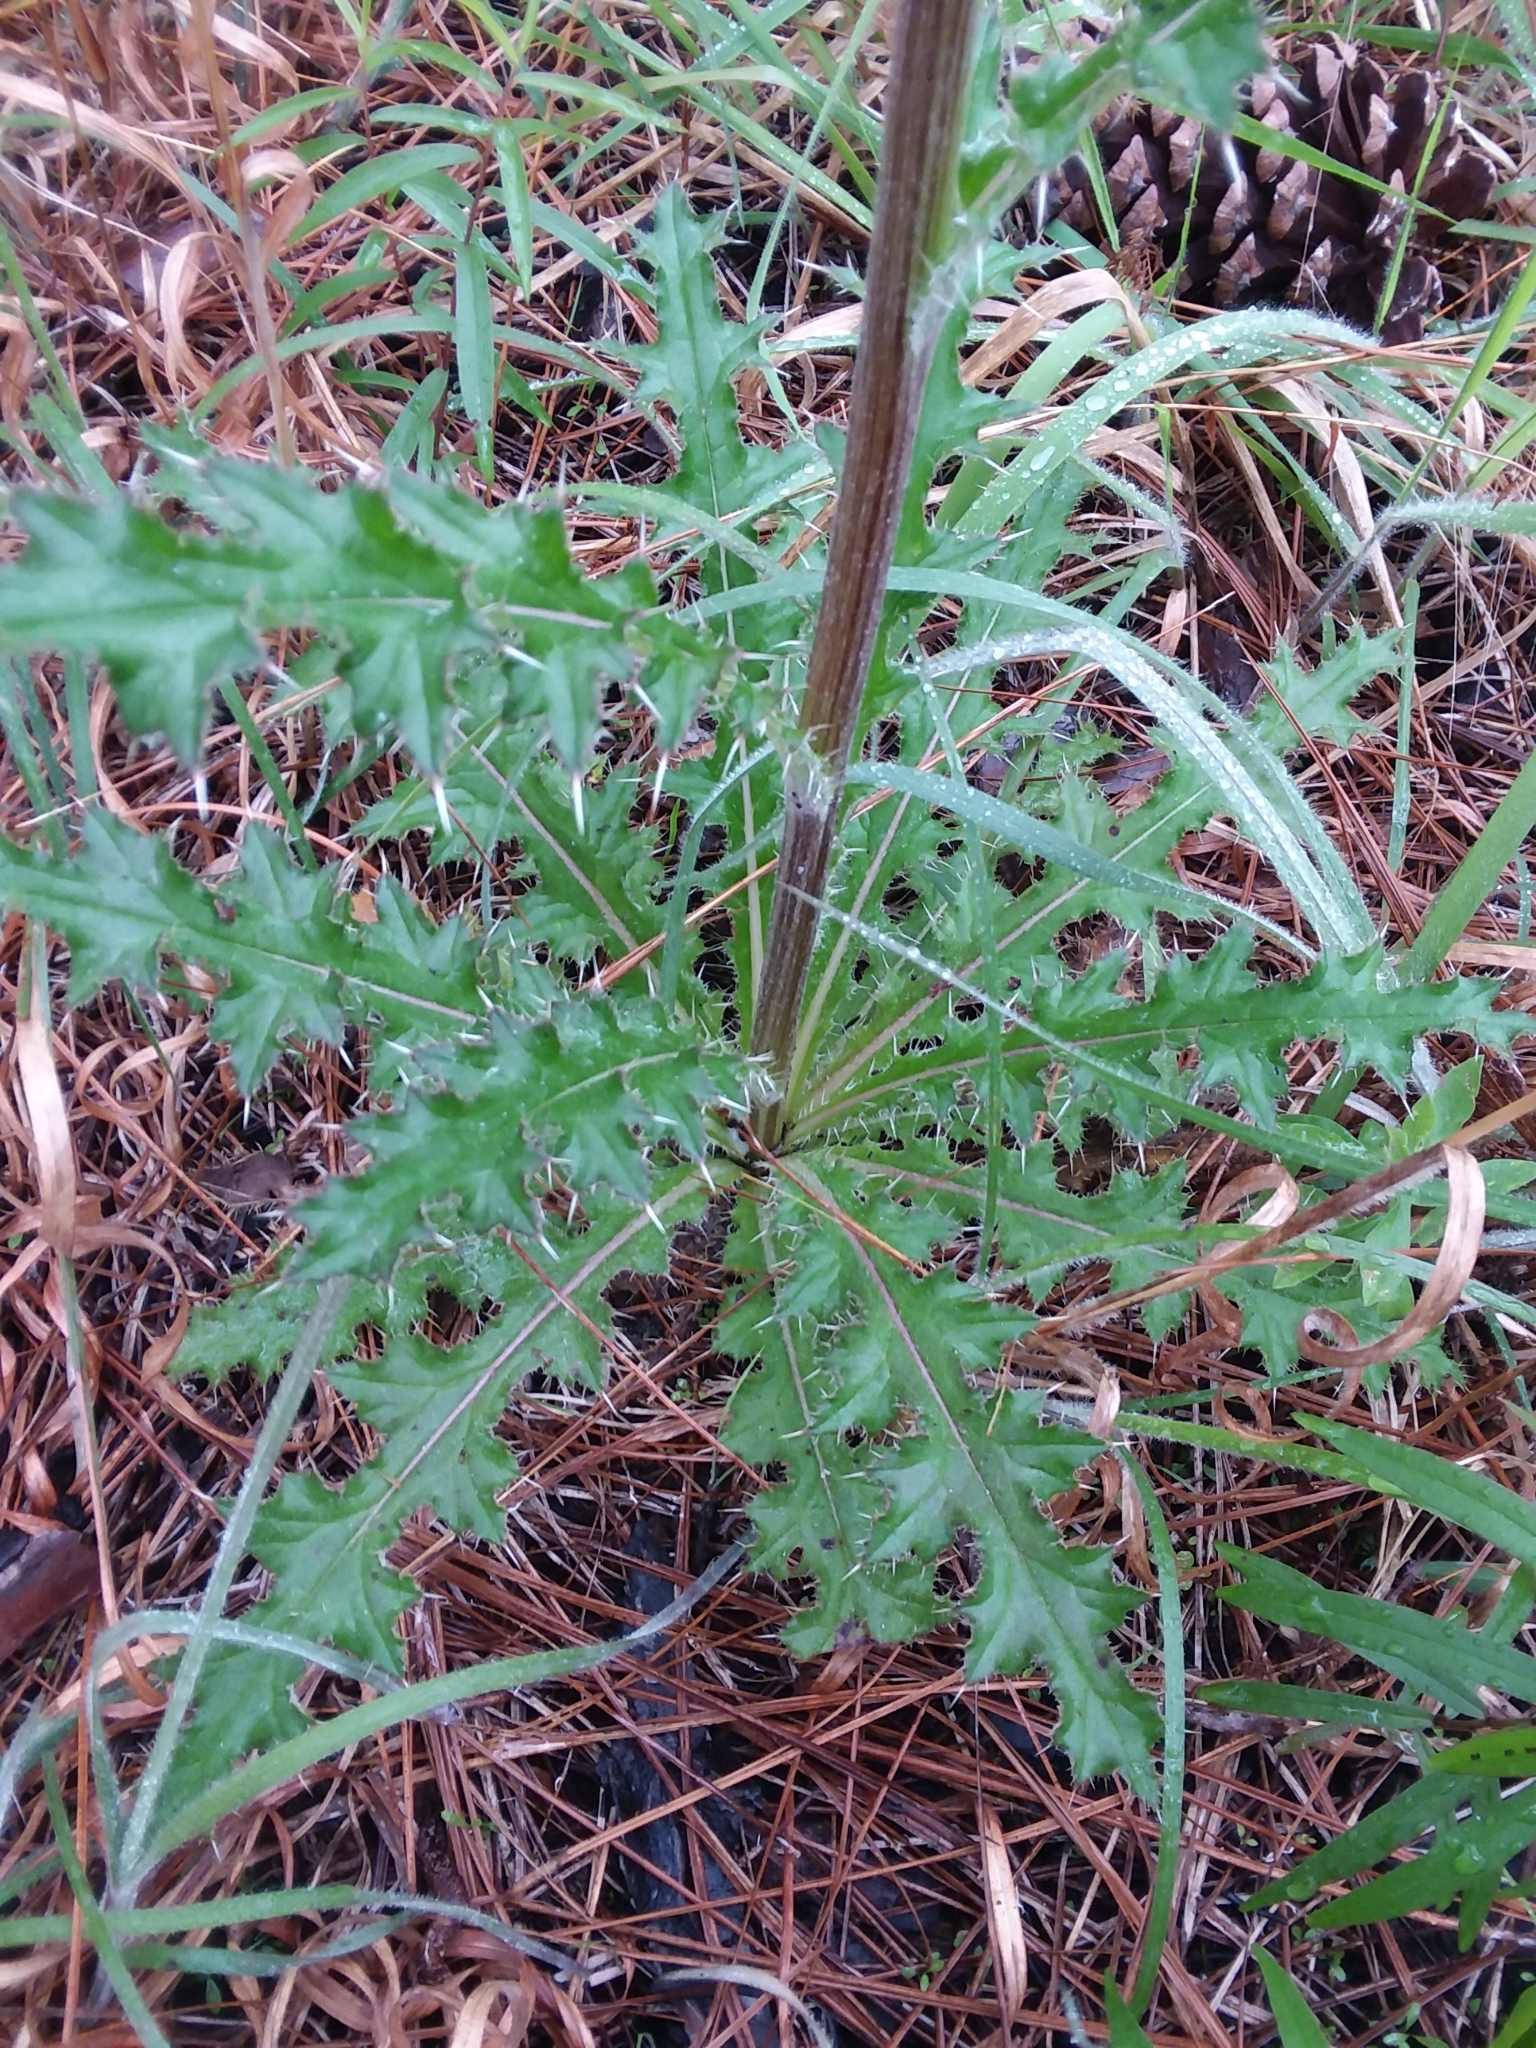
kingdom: Plantae
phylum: Tracheophyta
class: Magnoliopsida
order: Asterales
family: Asteraceae
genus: Cirsium
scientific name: Cirsium horridulum
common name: Bristly thistle
